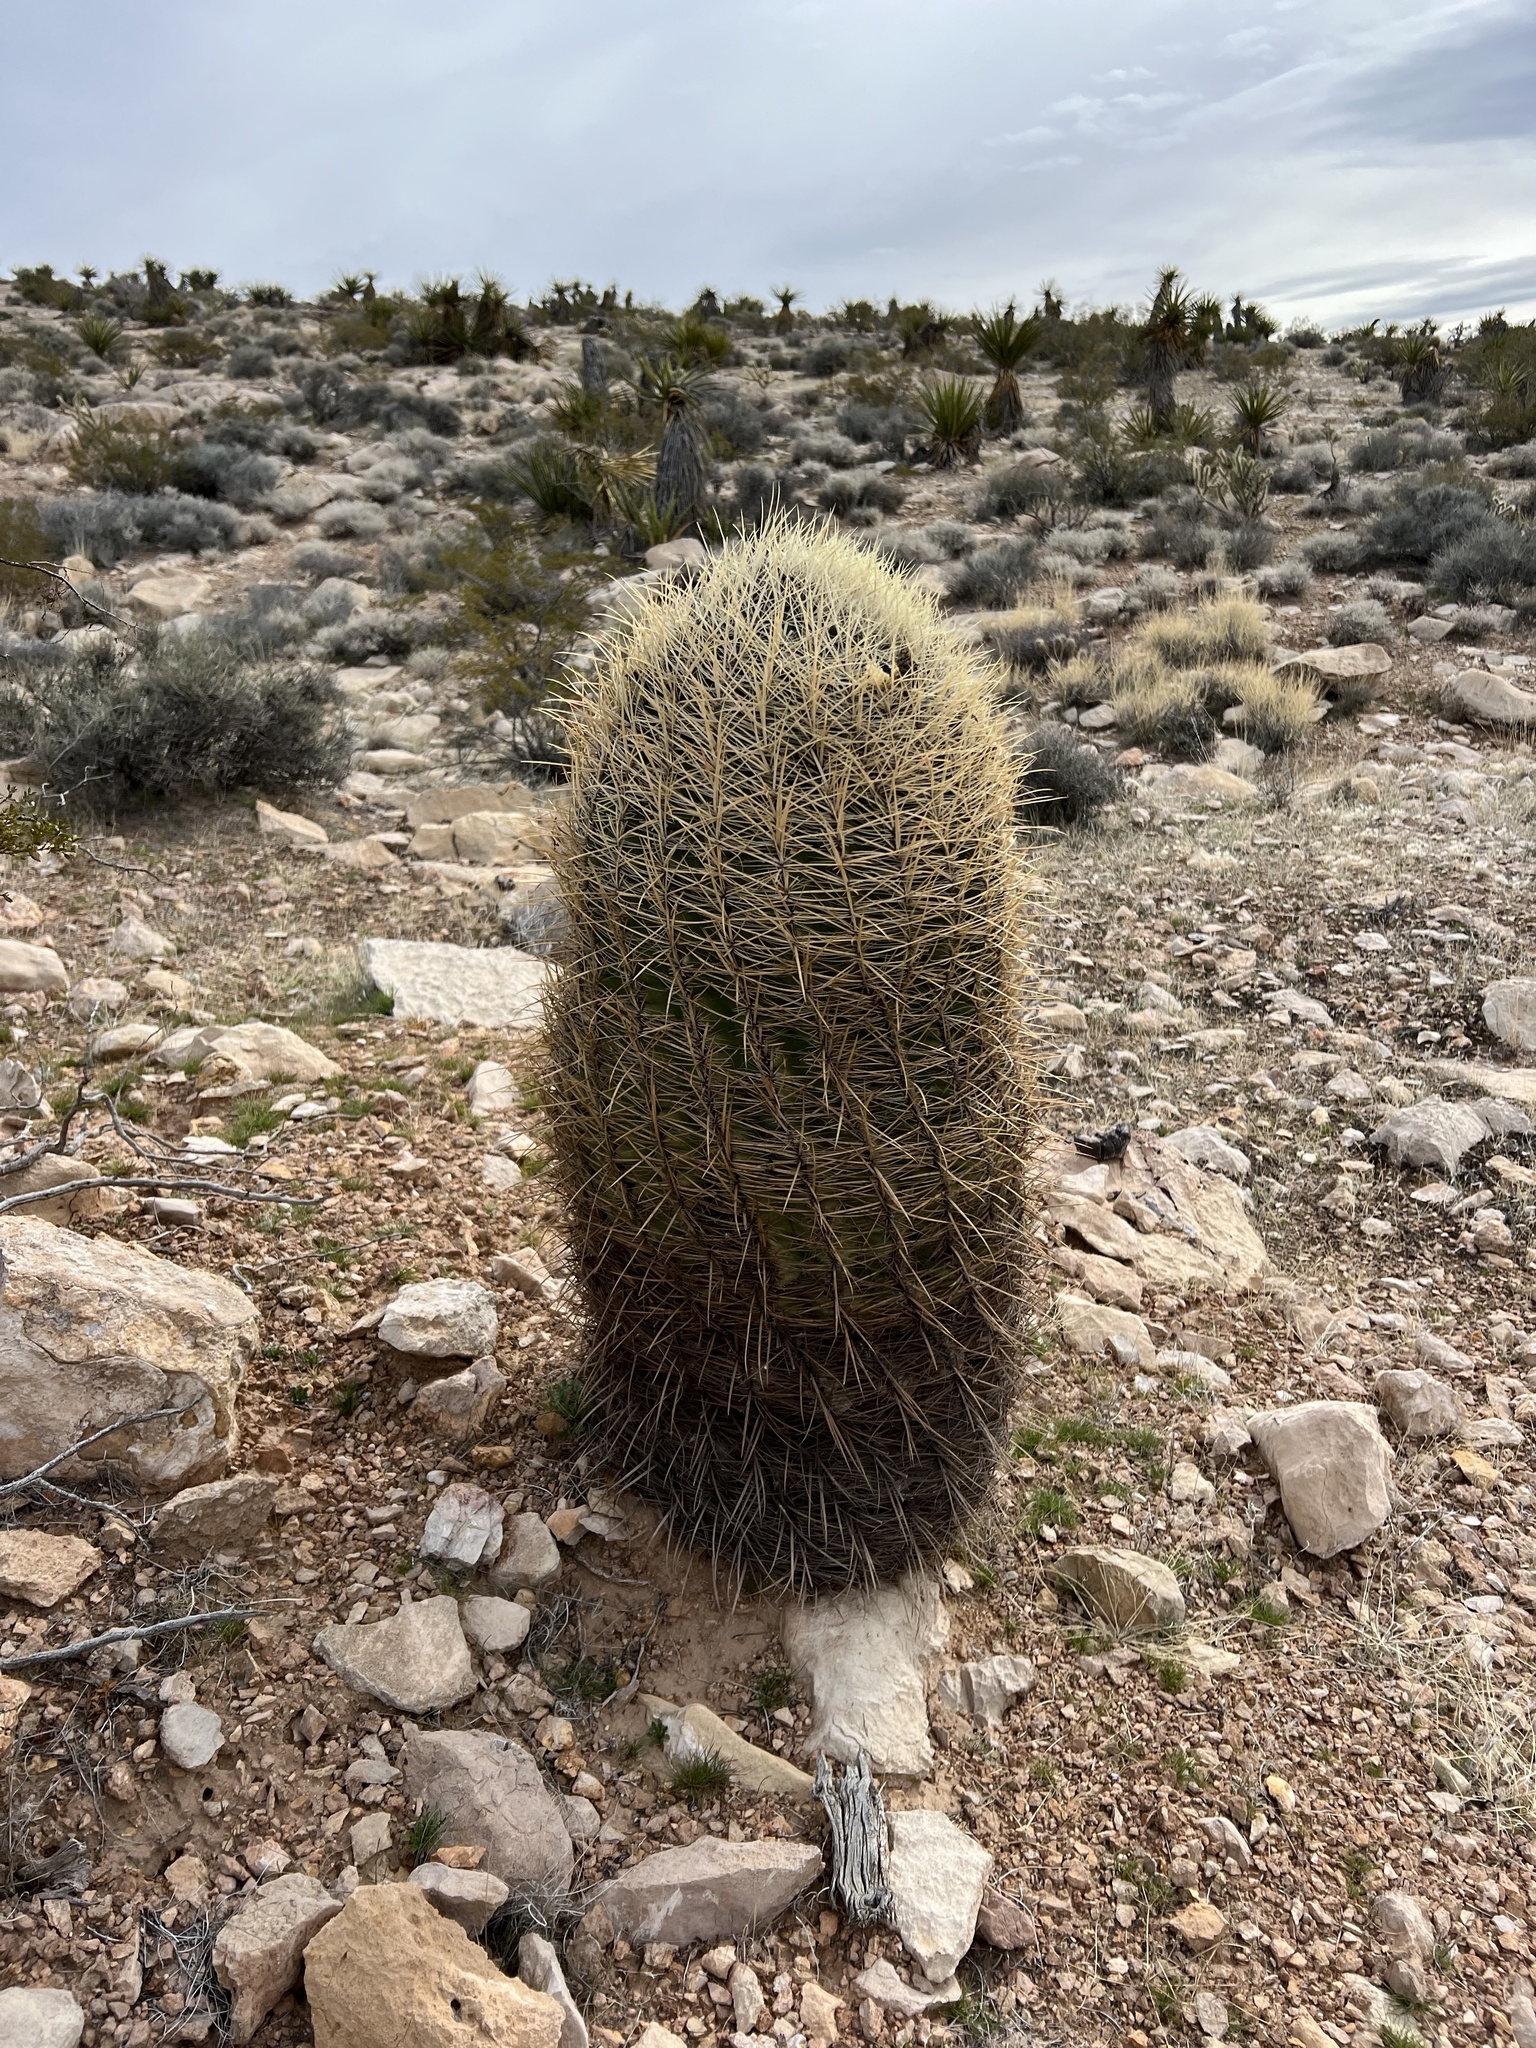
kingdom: Plantae
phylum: Tracheophyta
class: Magnoliopsida
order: Caryophyllales
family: Cactaceae
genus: Ferocactus
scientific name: Ferocactus cylindraceus
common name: California barrel cactus
